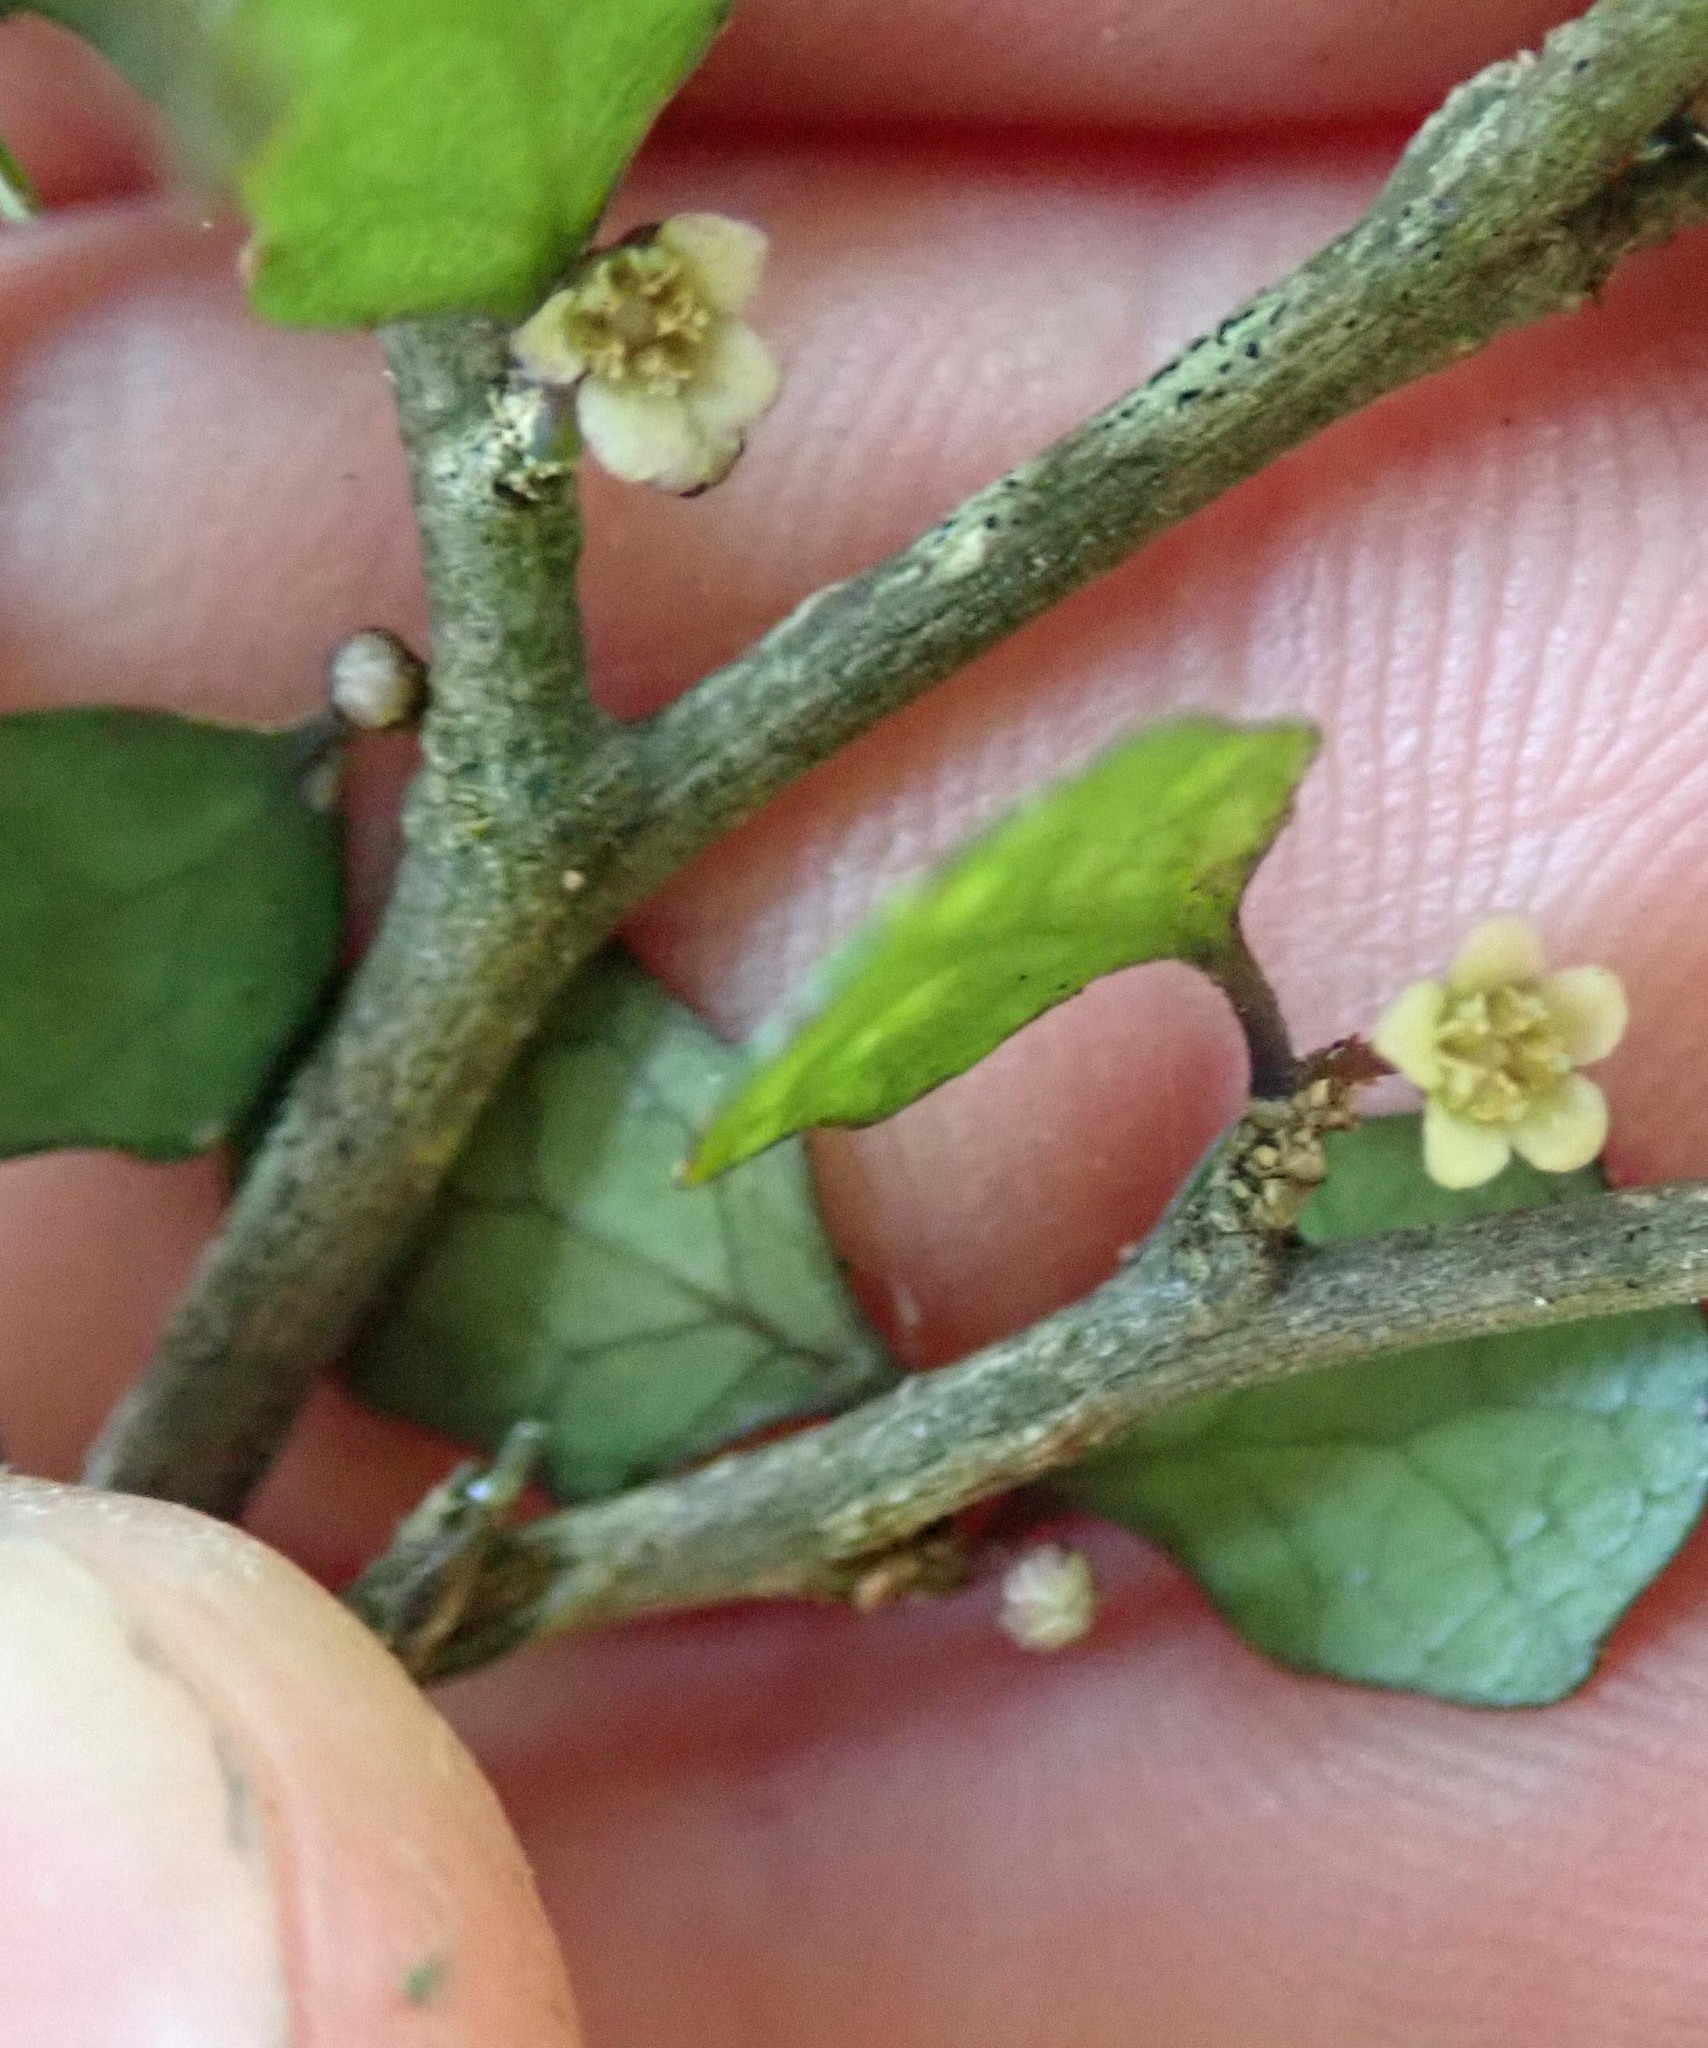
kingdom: Plantae
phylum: Tracheophyta
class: Magnoliopsida
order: Malpighiales
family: Violaceae
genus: Melicytus
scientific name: Melicytus micranthus
